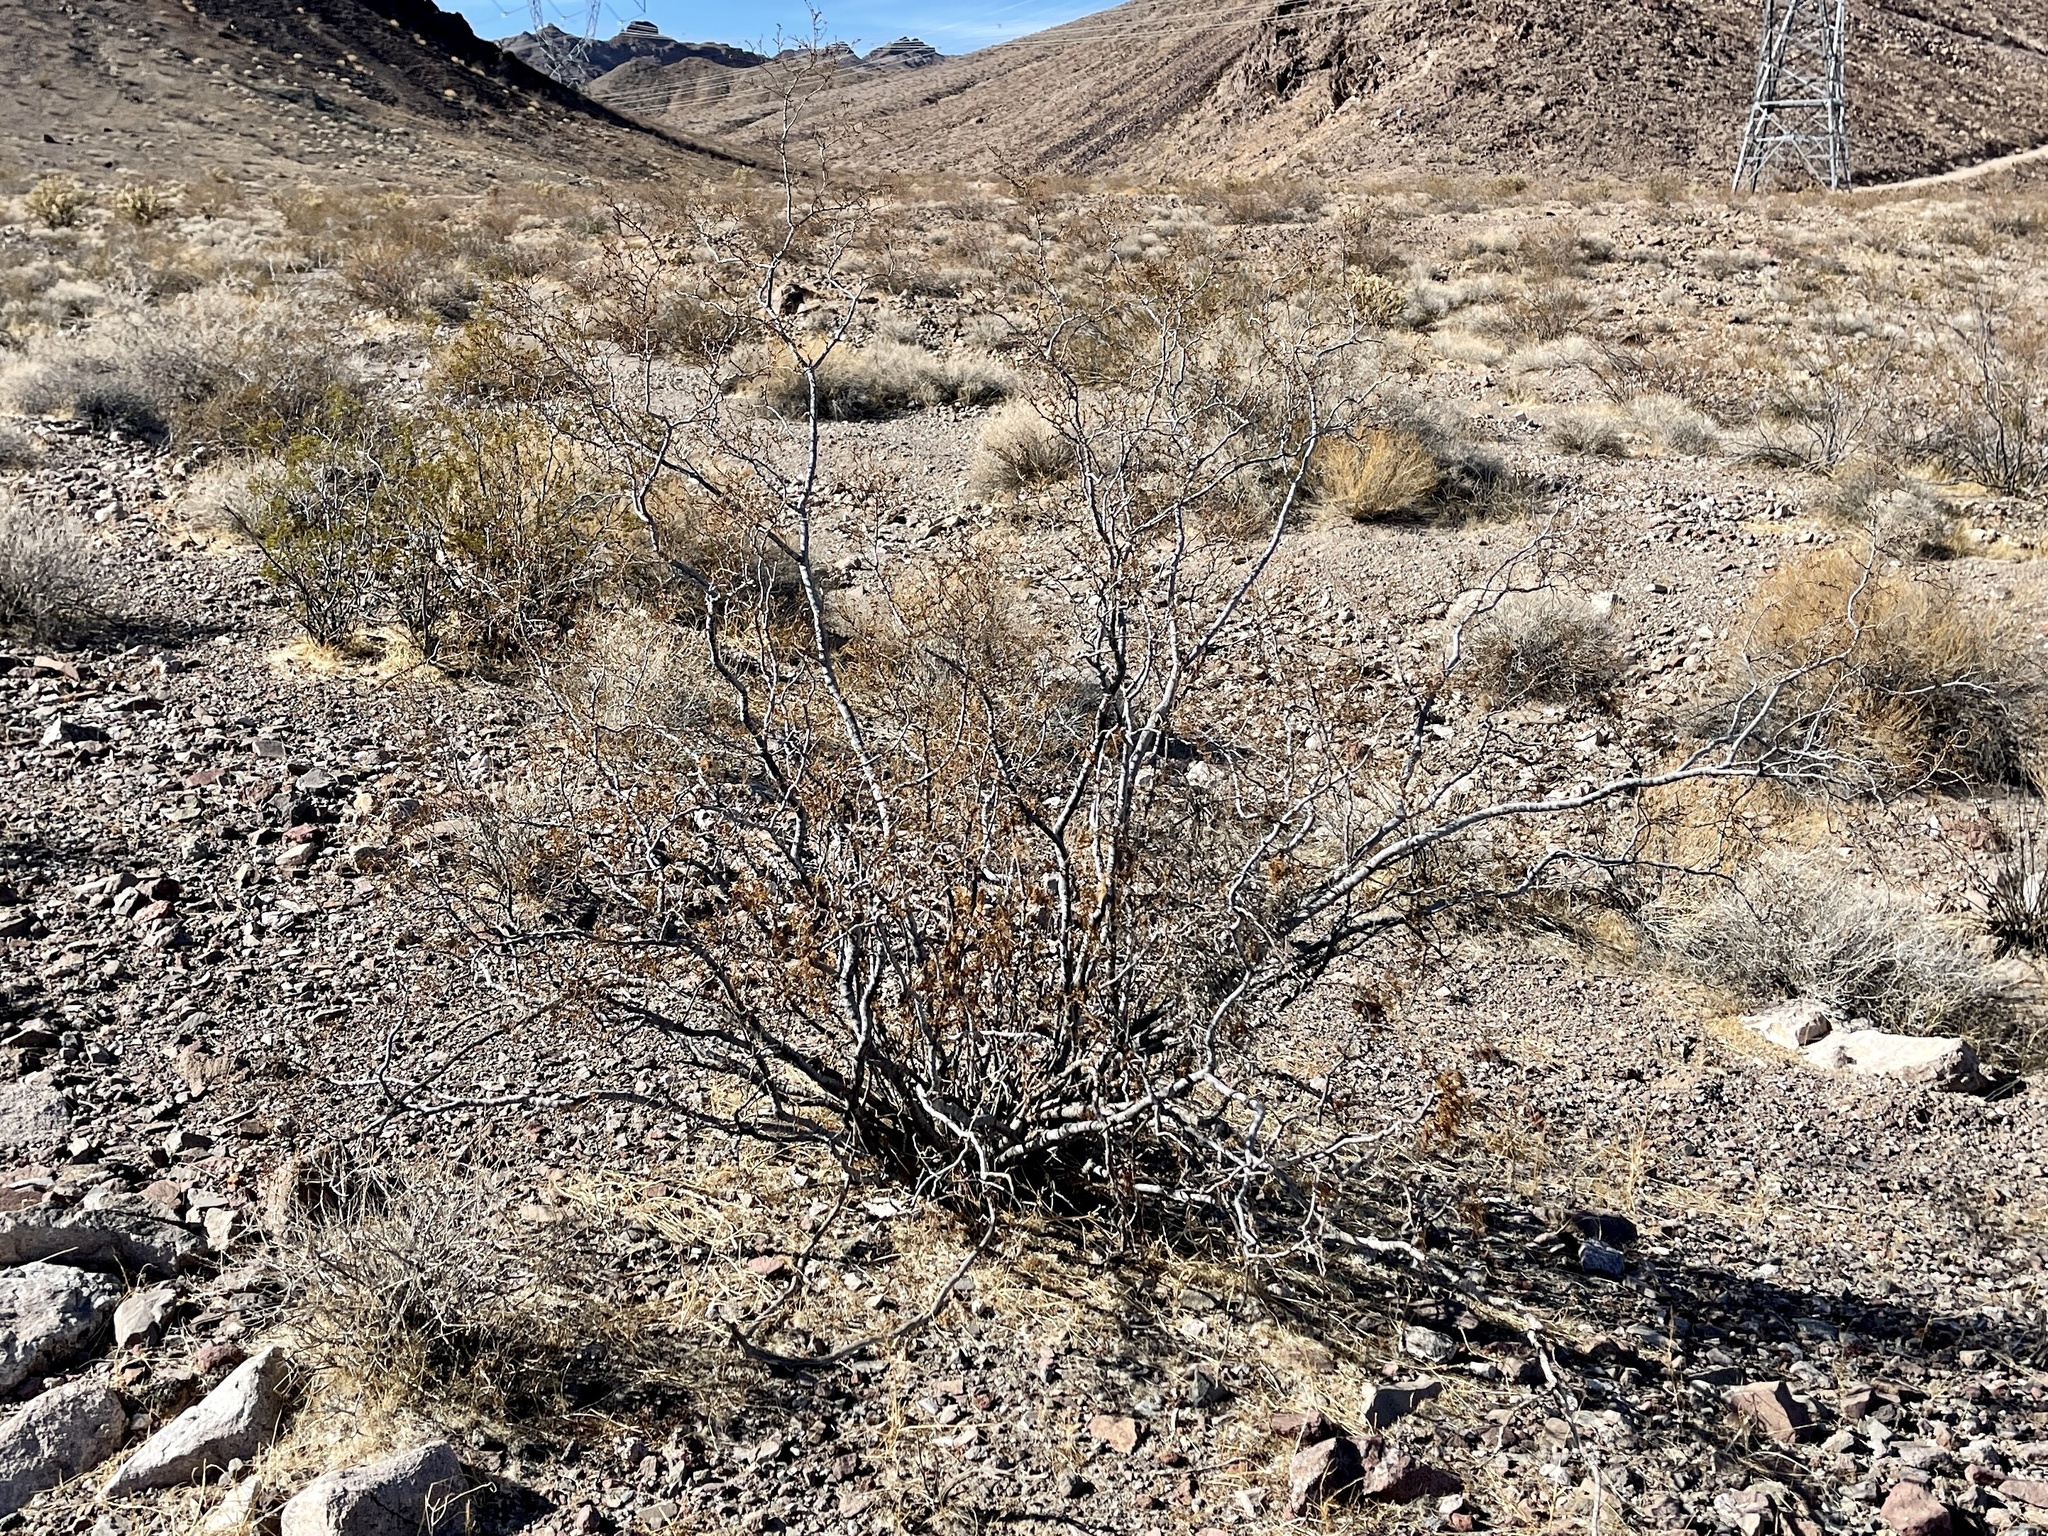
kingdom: Plantae
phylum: Tracheophyta
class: Magnoliopsida
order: Zygophyllales
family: Zygophyllaceae
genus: Larrea
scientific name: Larrea tridentata
